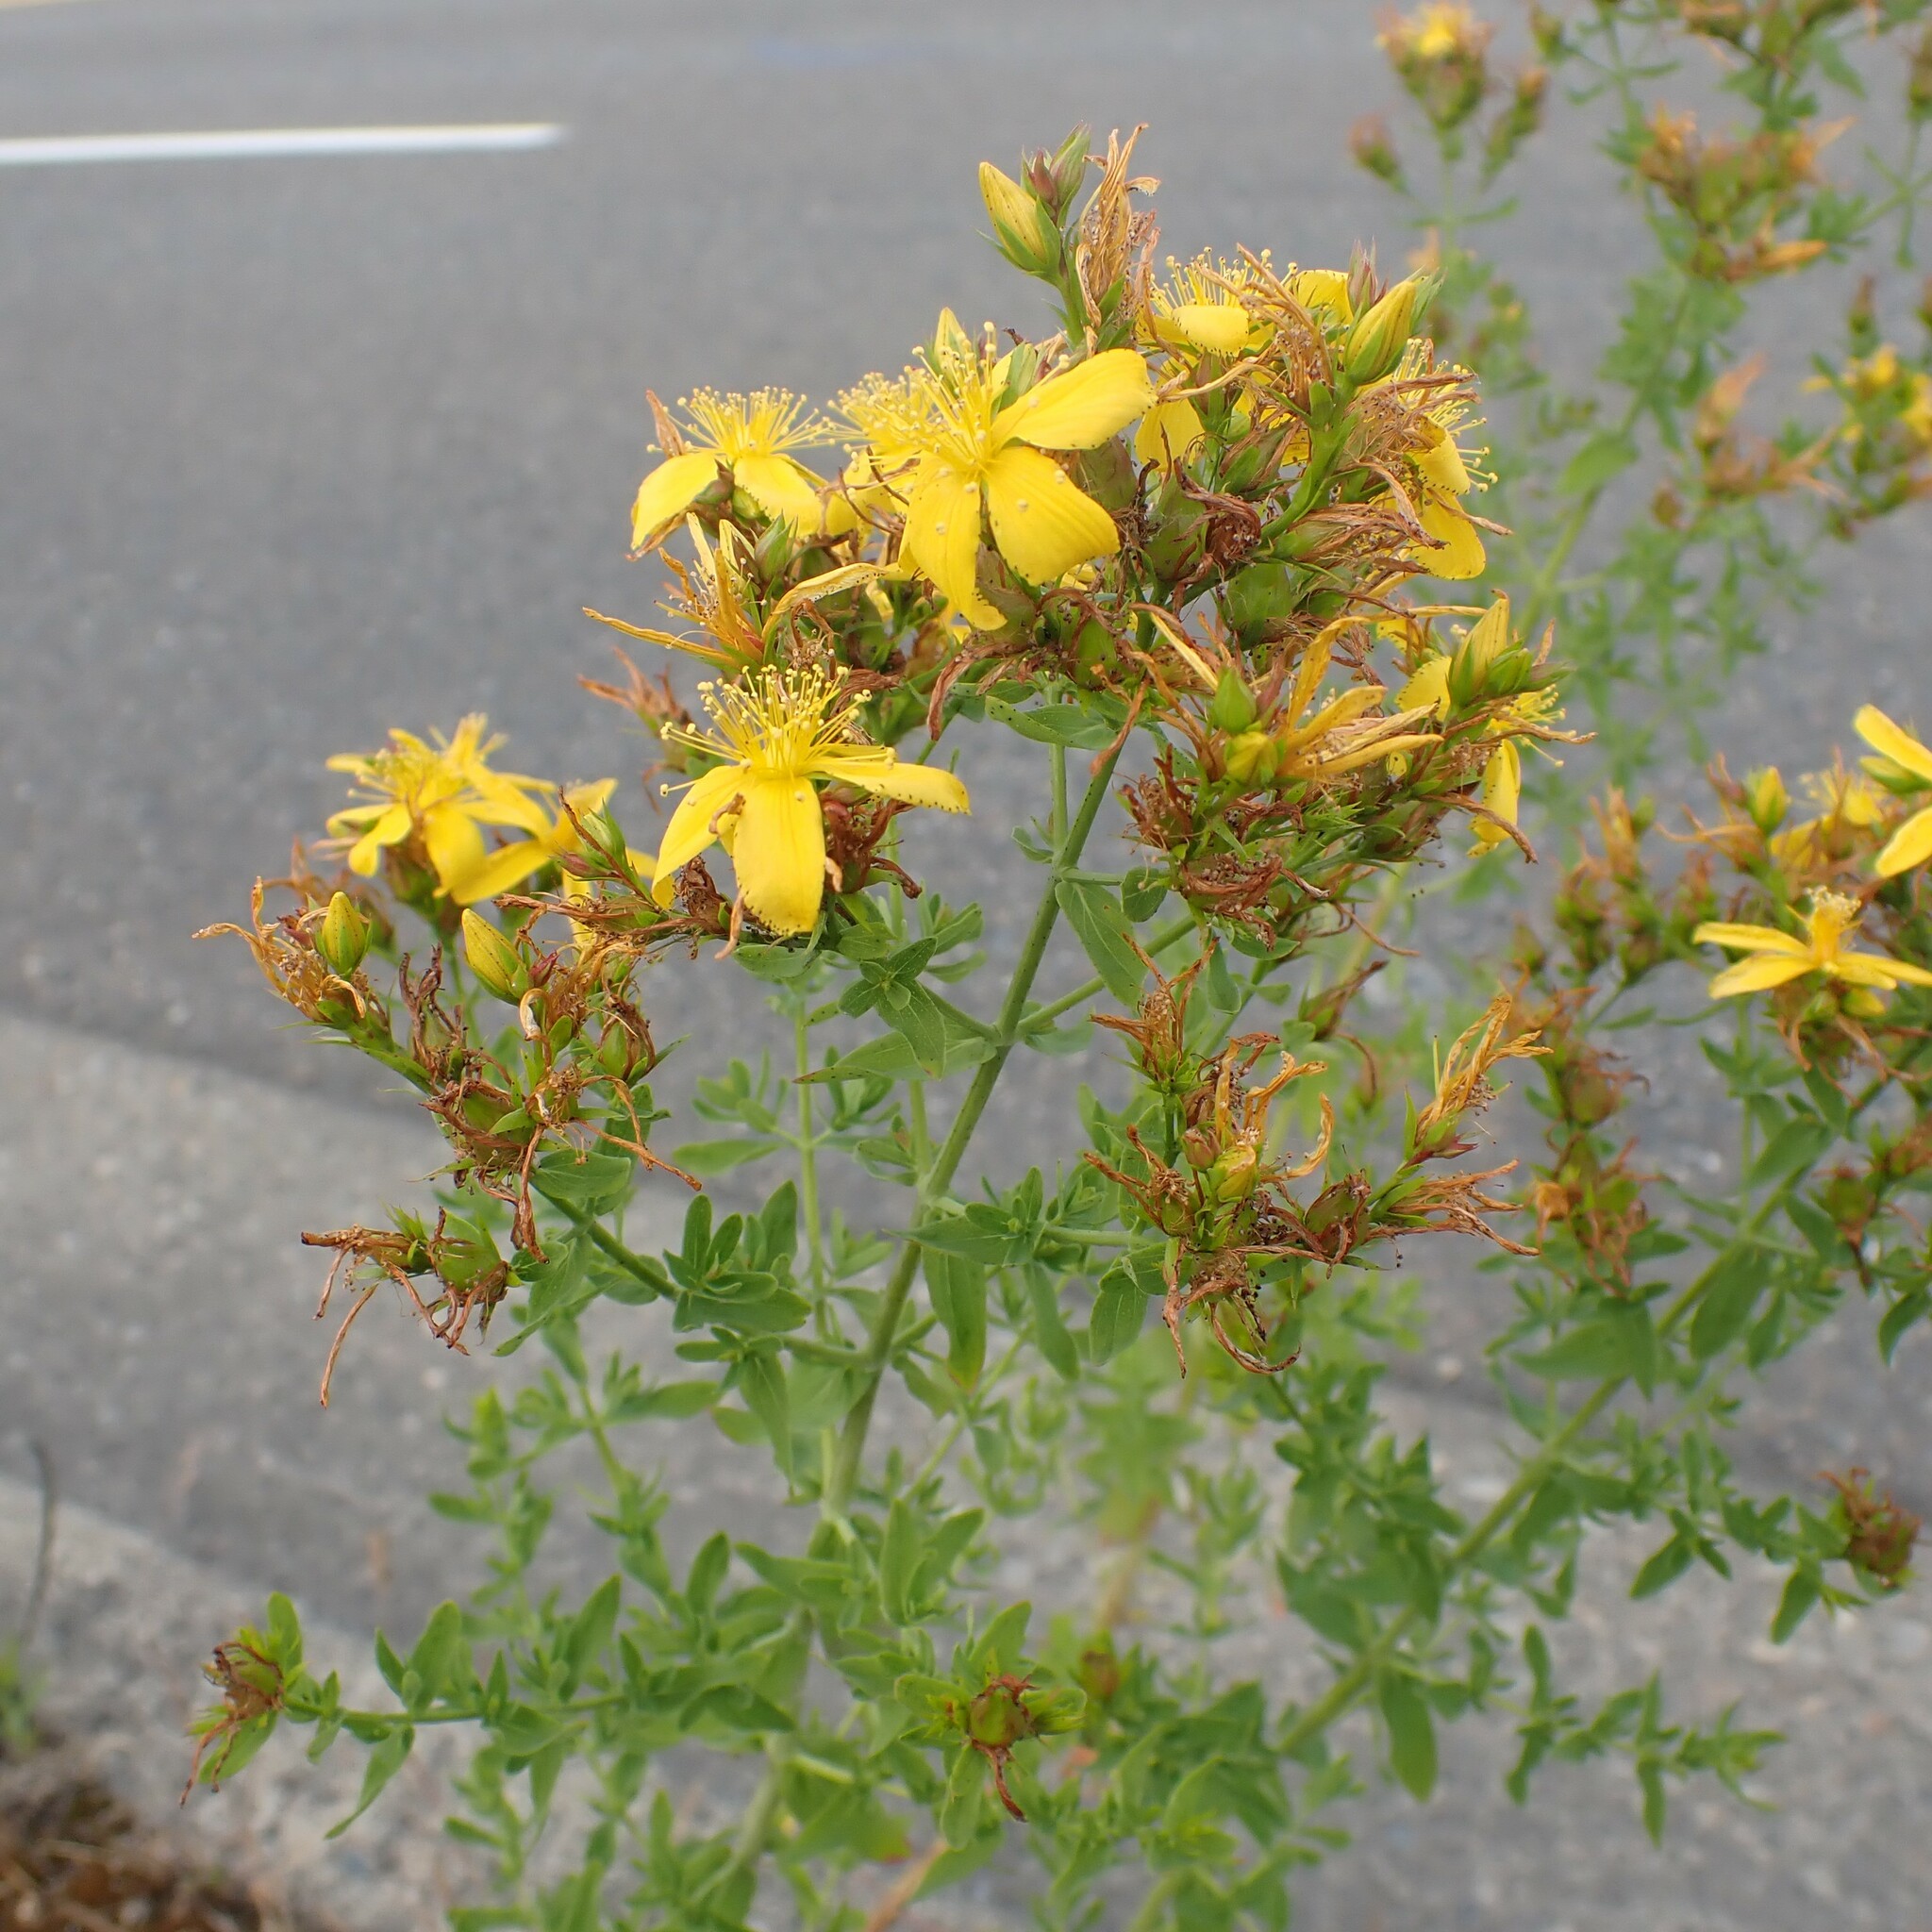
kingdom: Plantae
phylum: Tracheophyta
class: Magnoliopsida
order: Malpighiales
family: Hypericaceae
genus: Hypericum
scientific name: Hypericum perforatum
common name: Common st. johnswort
